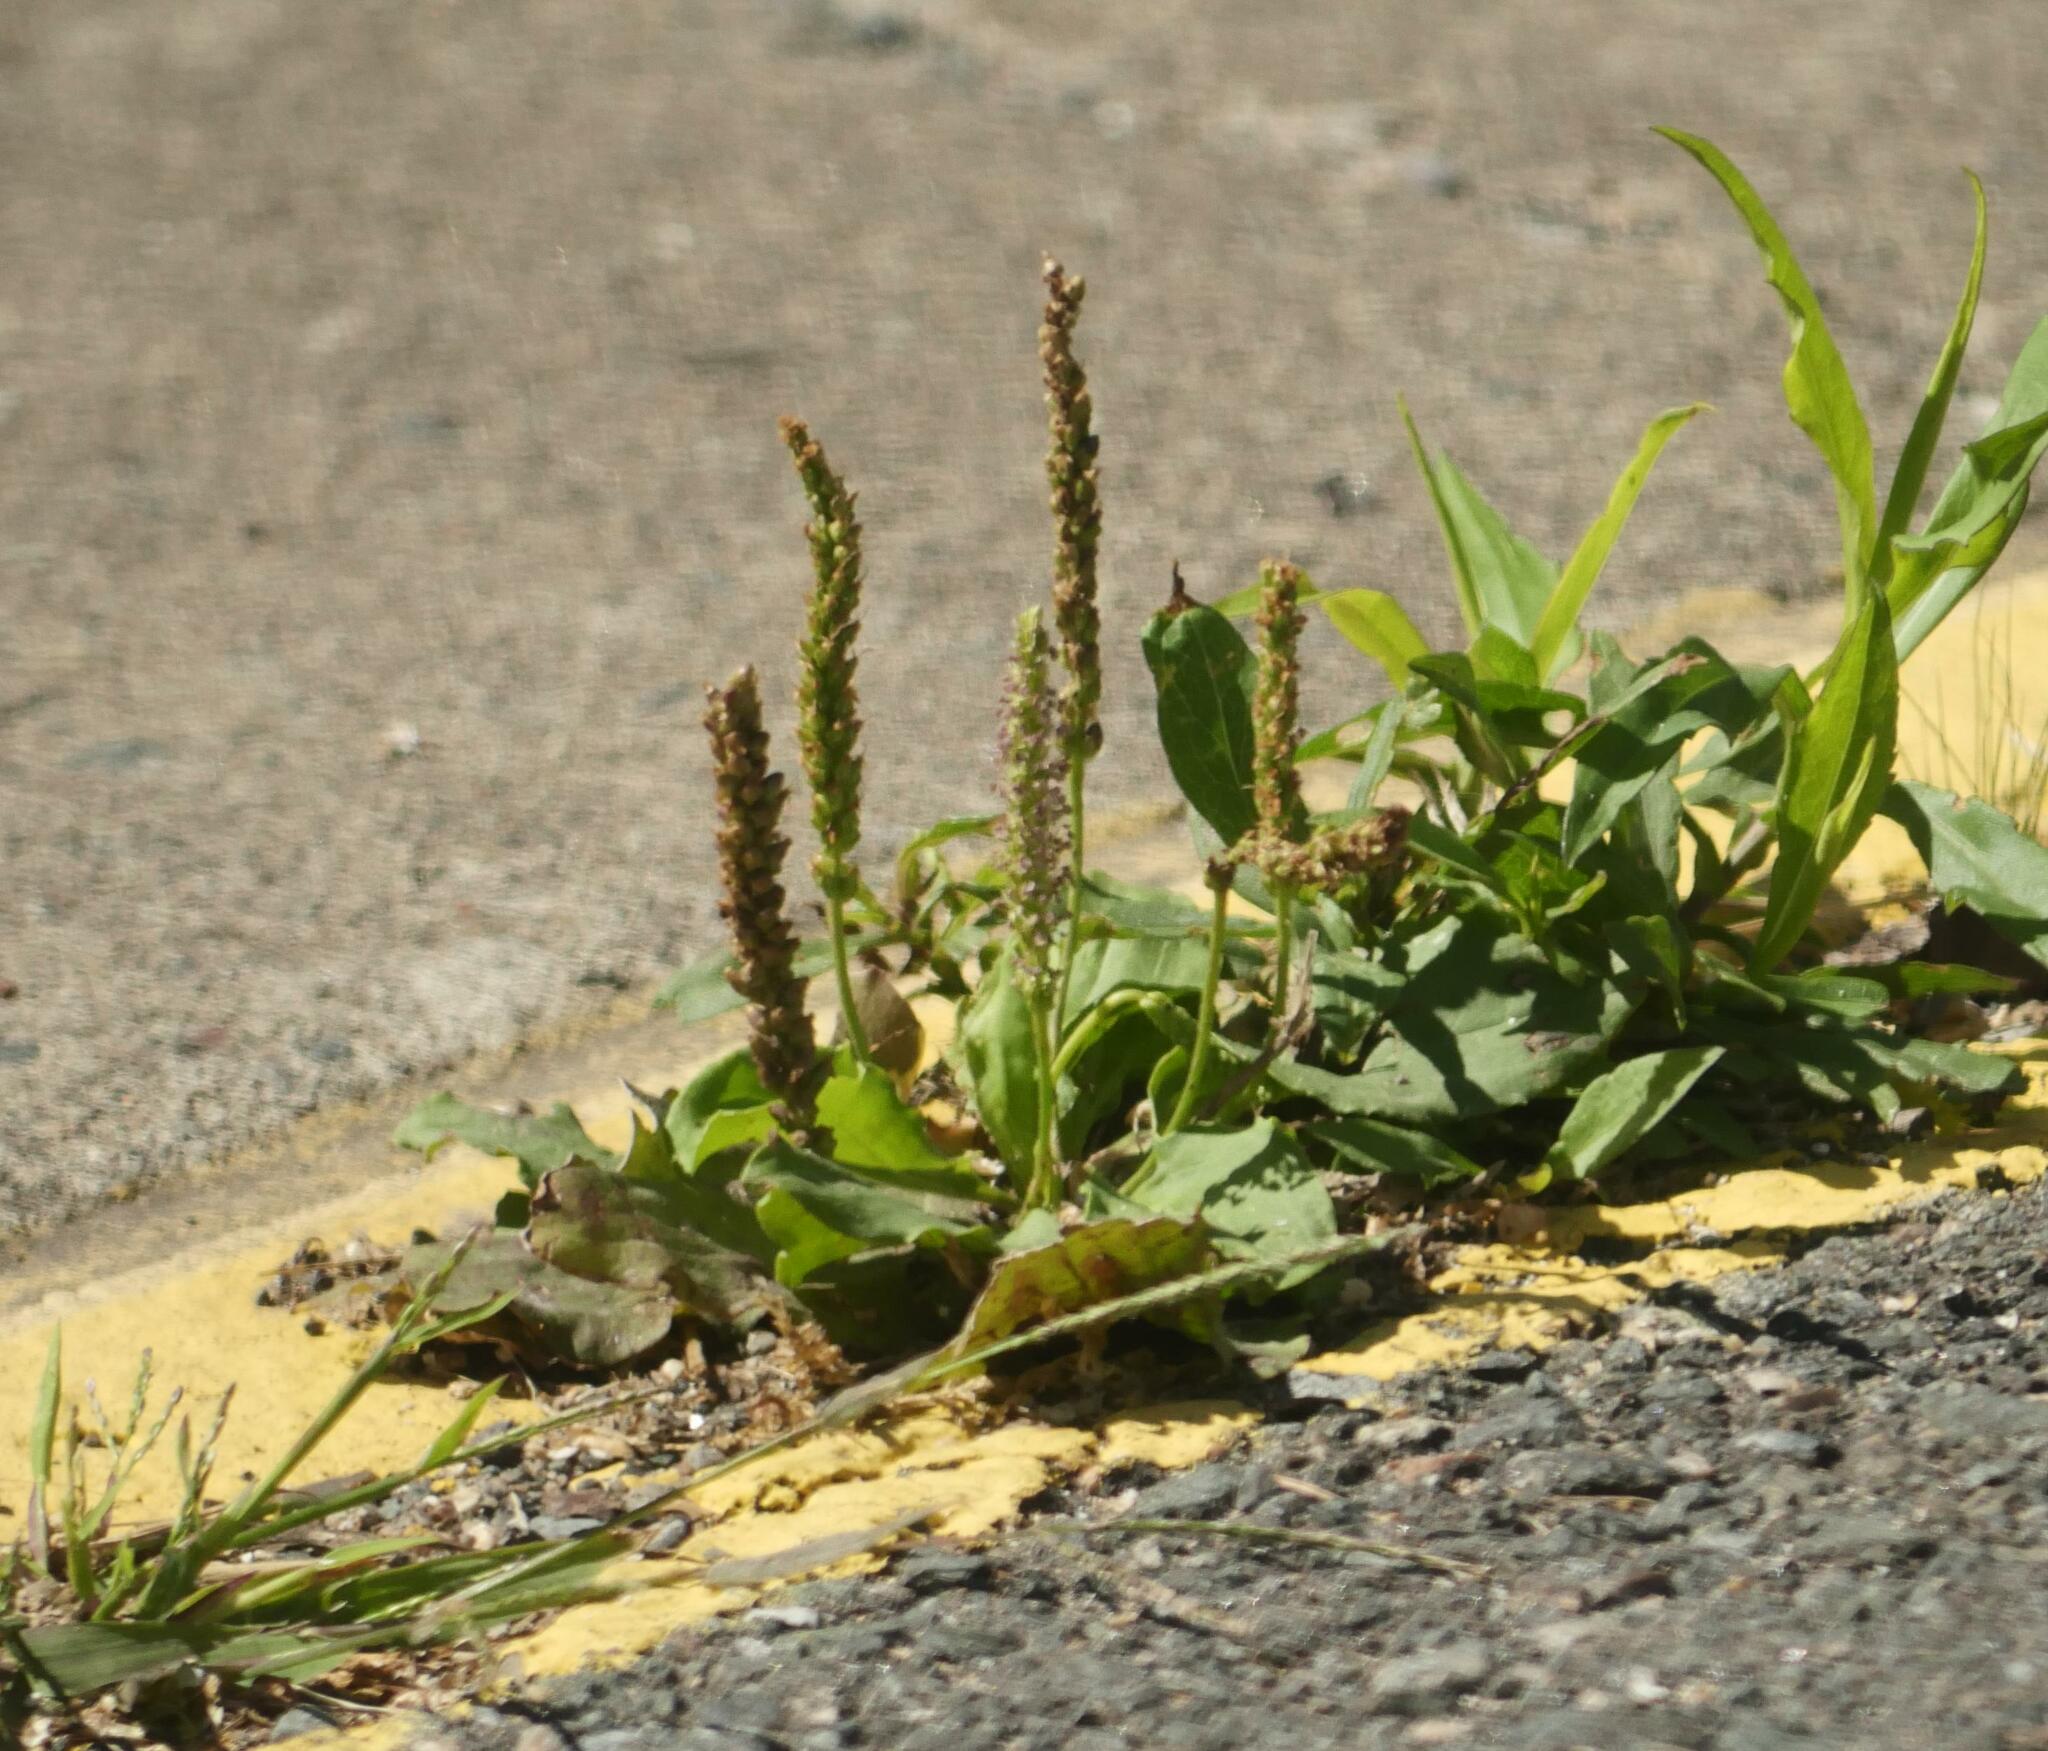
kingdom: Plantae
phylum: Tracheophyta
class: Magnoliopsida
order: Lamiales
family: Plantaginaceae
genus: Plantago
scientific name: Plantago major
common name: Common plantain
